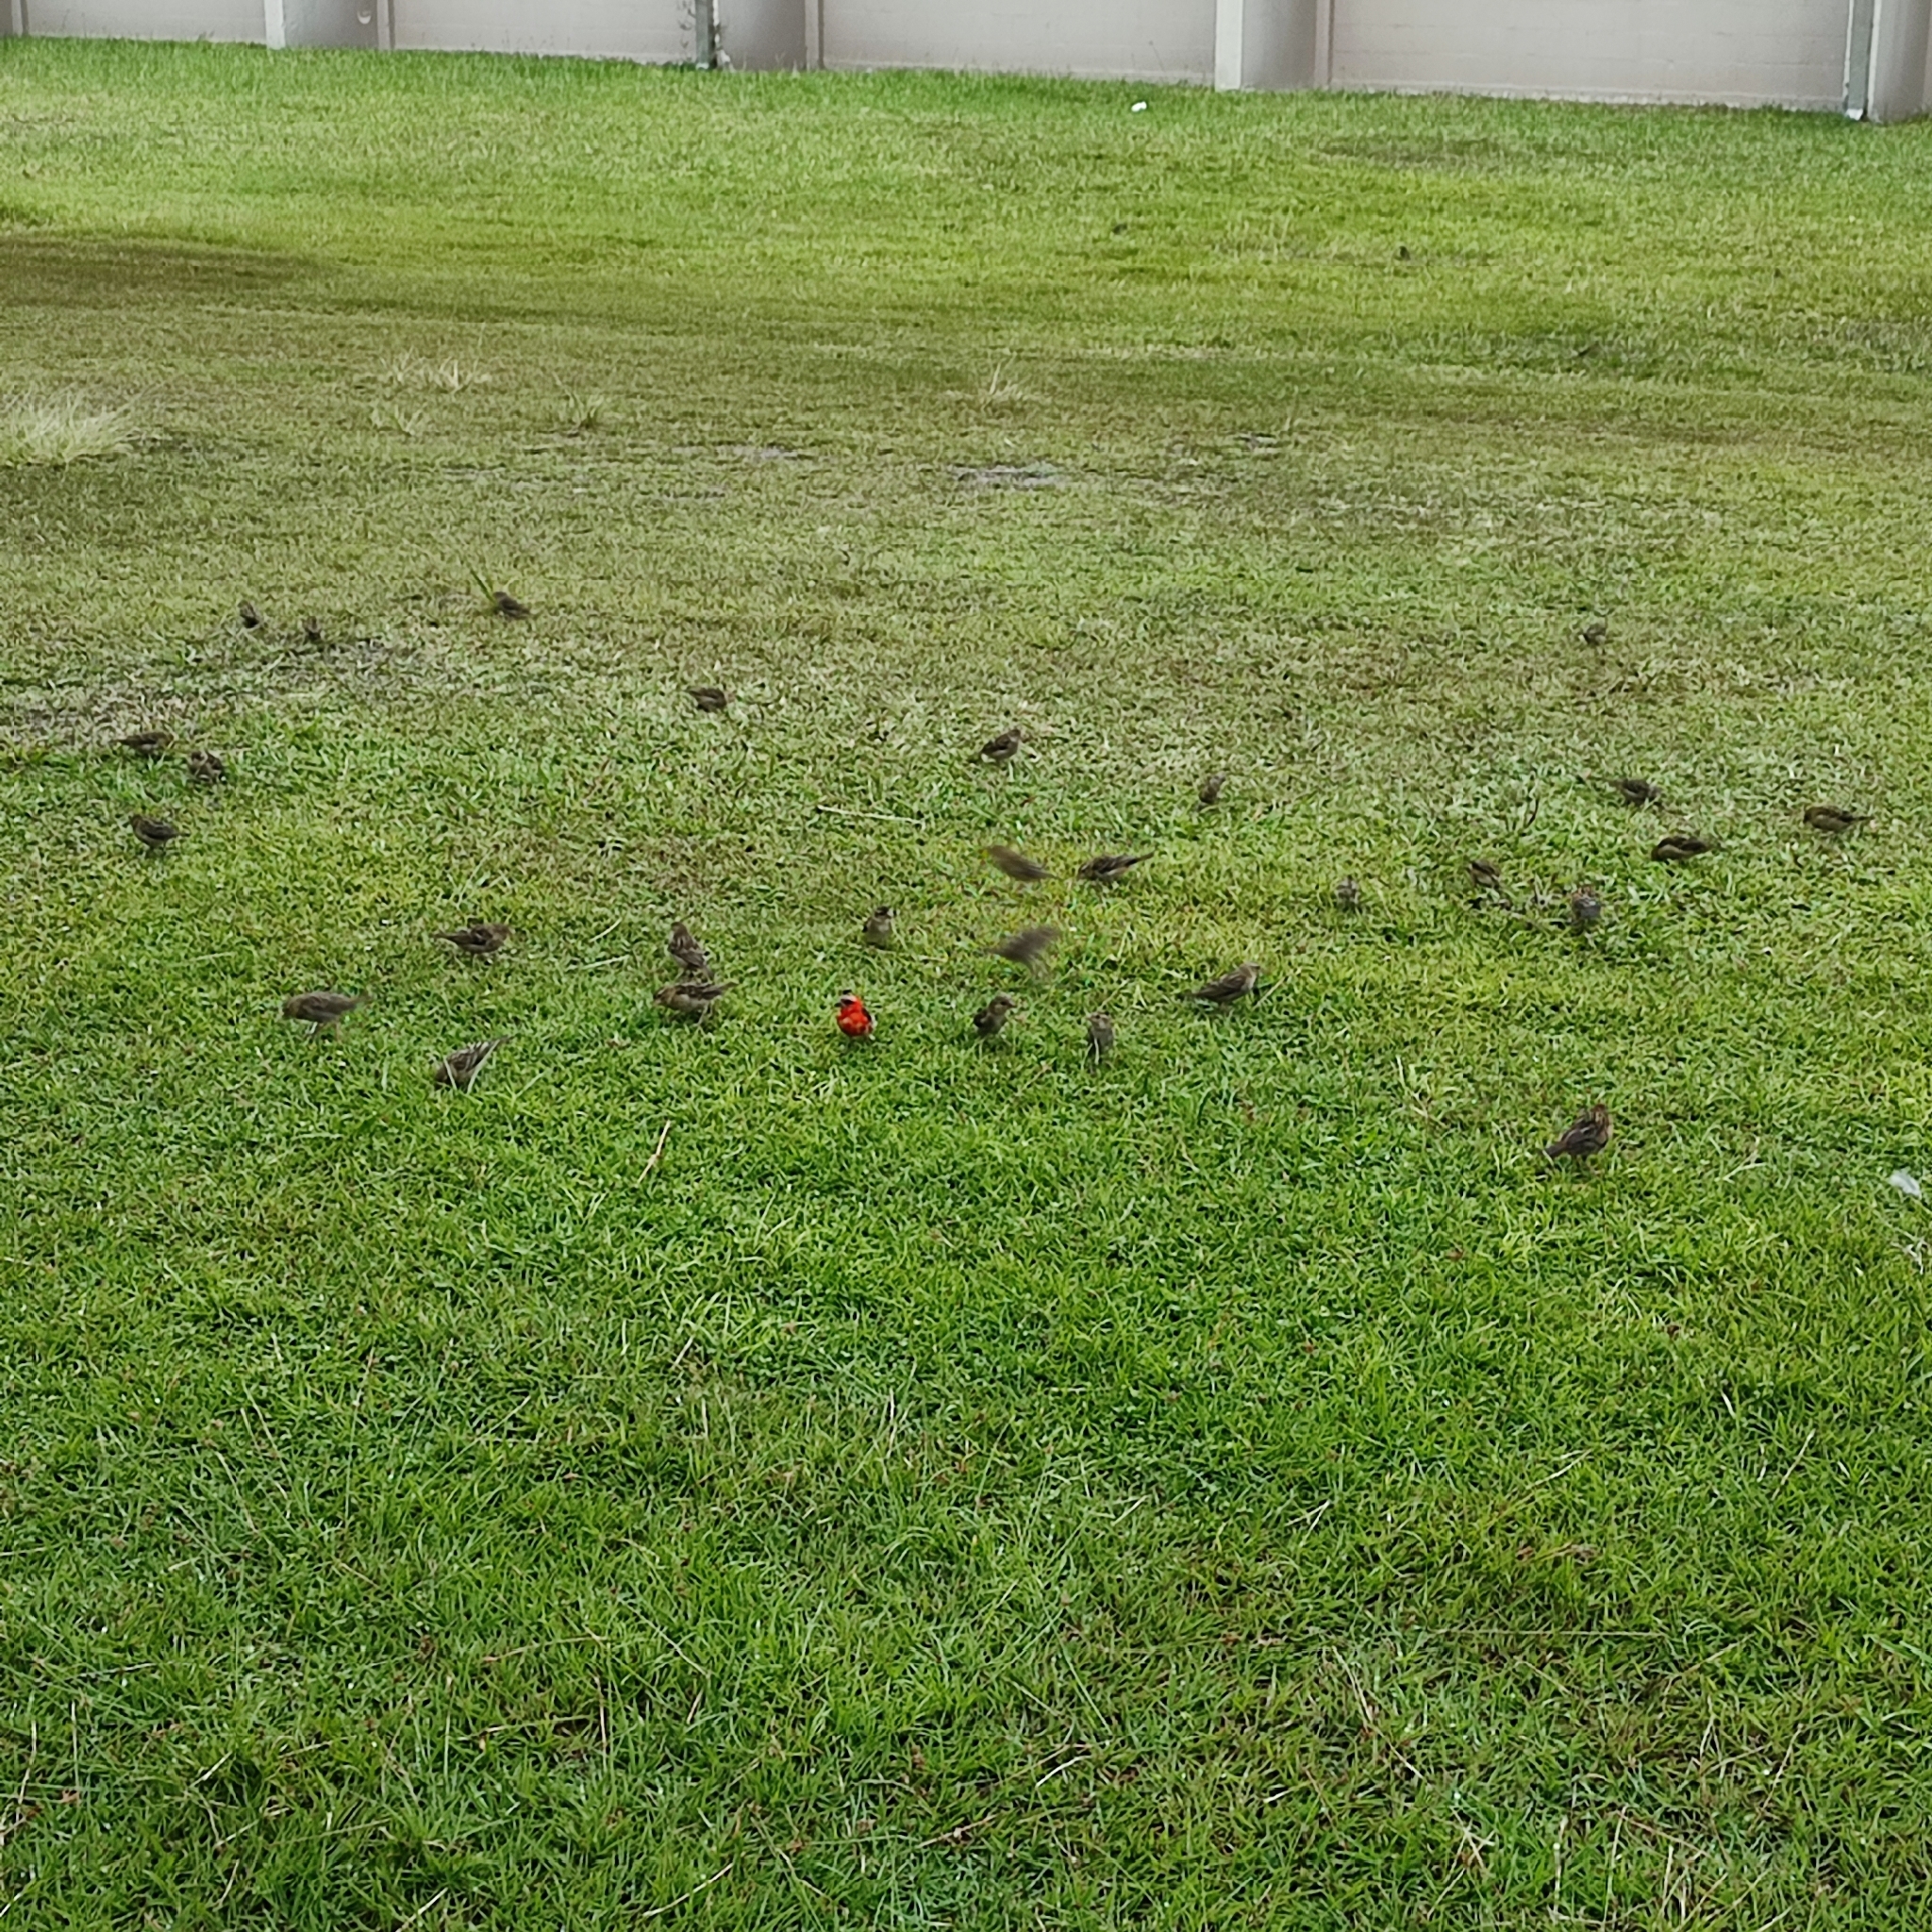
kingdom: Animalia
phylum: Chordata
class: Aves
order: Passeriformes
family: Ploceidae
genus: Foudia
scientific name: Foudia madagascariensis
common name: Red fody
